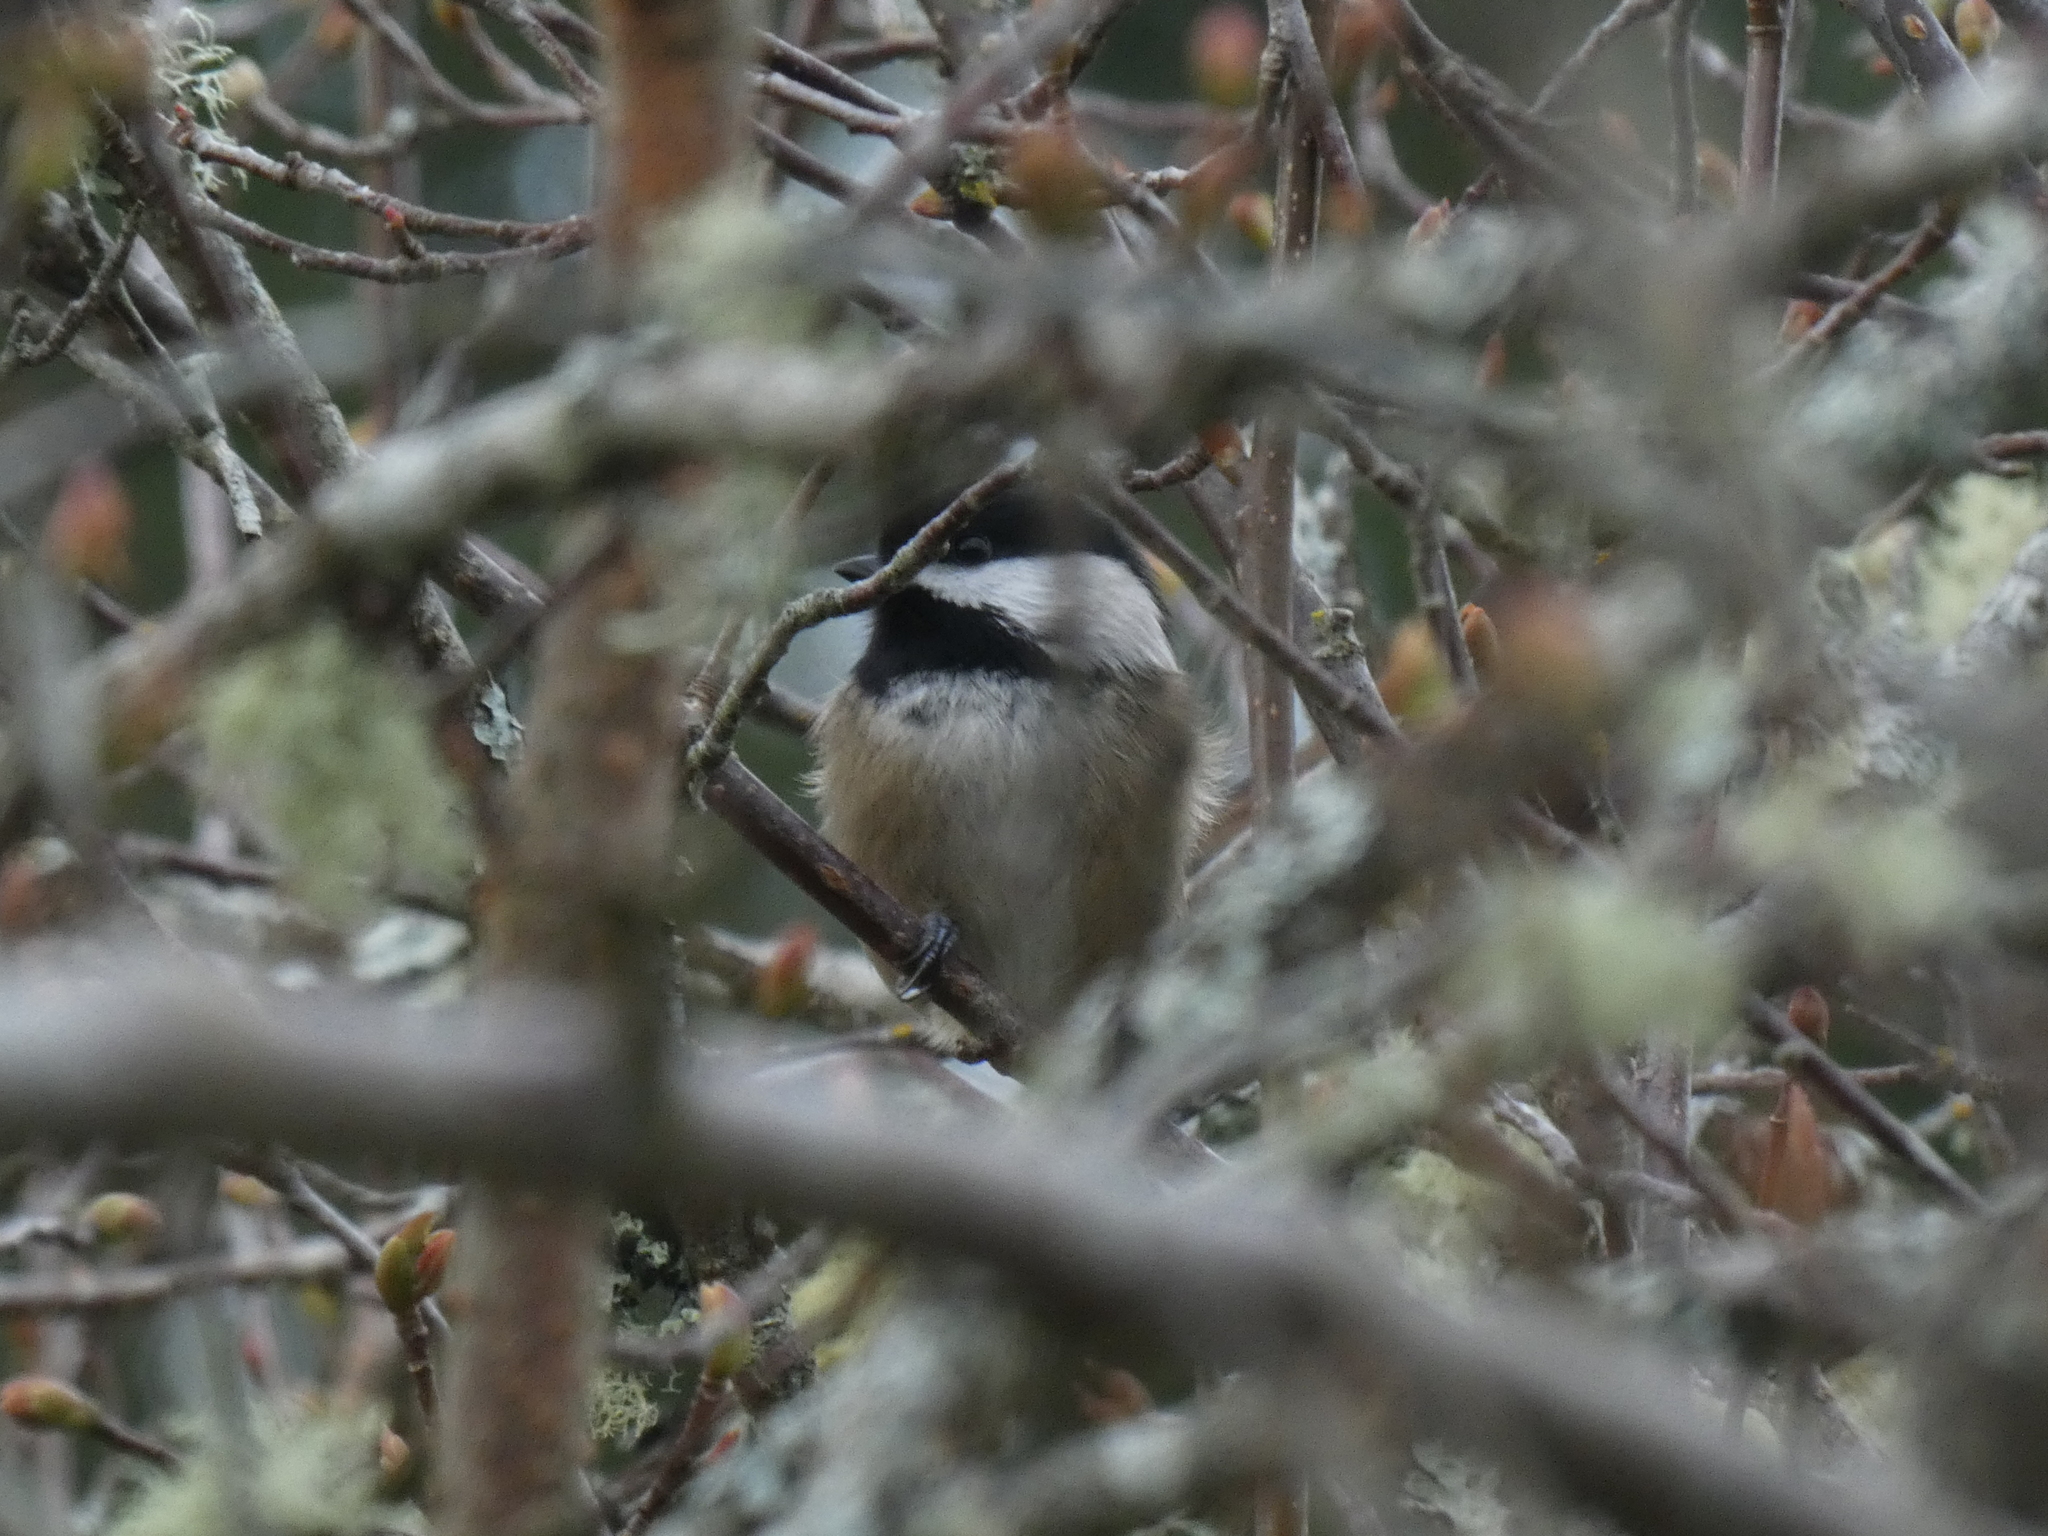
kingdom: Animalia
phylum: Chordata
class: Aves
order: Passeriformes
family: Paridae
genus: Poecile
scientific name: Poecile atricapillus
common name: Black-capped chickadee
